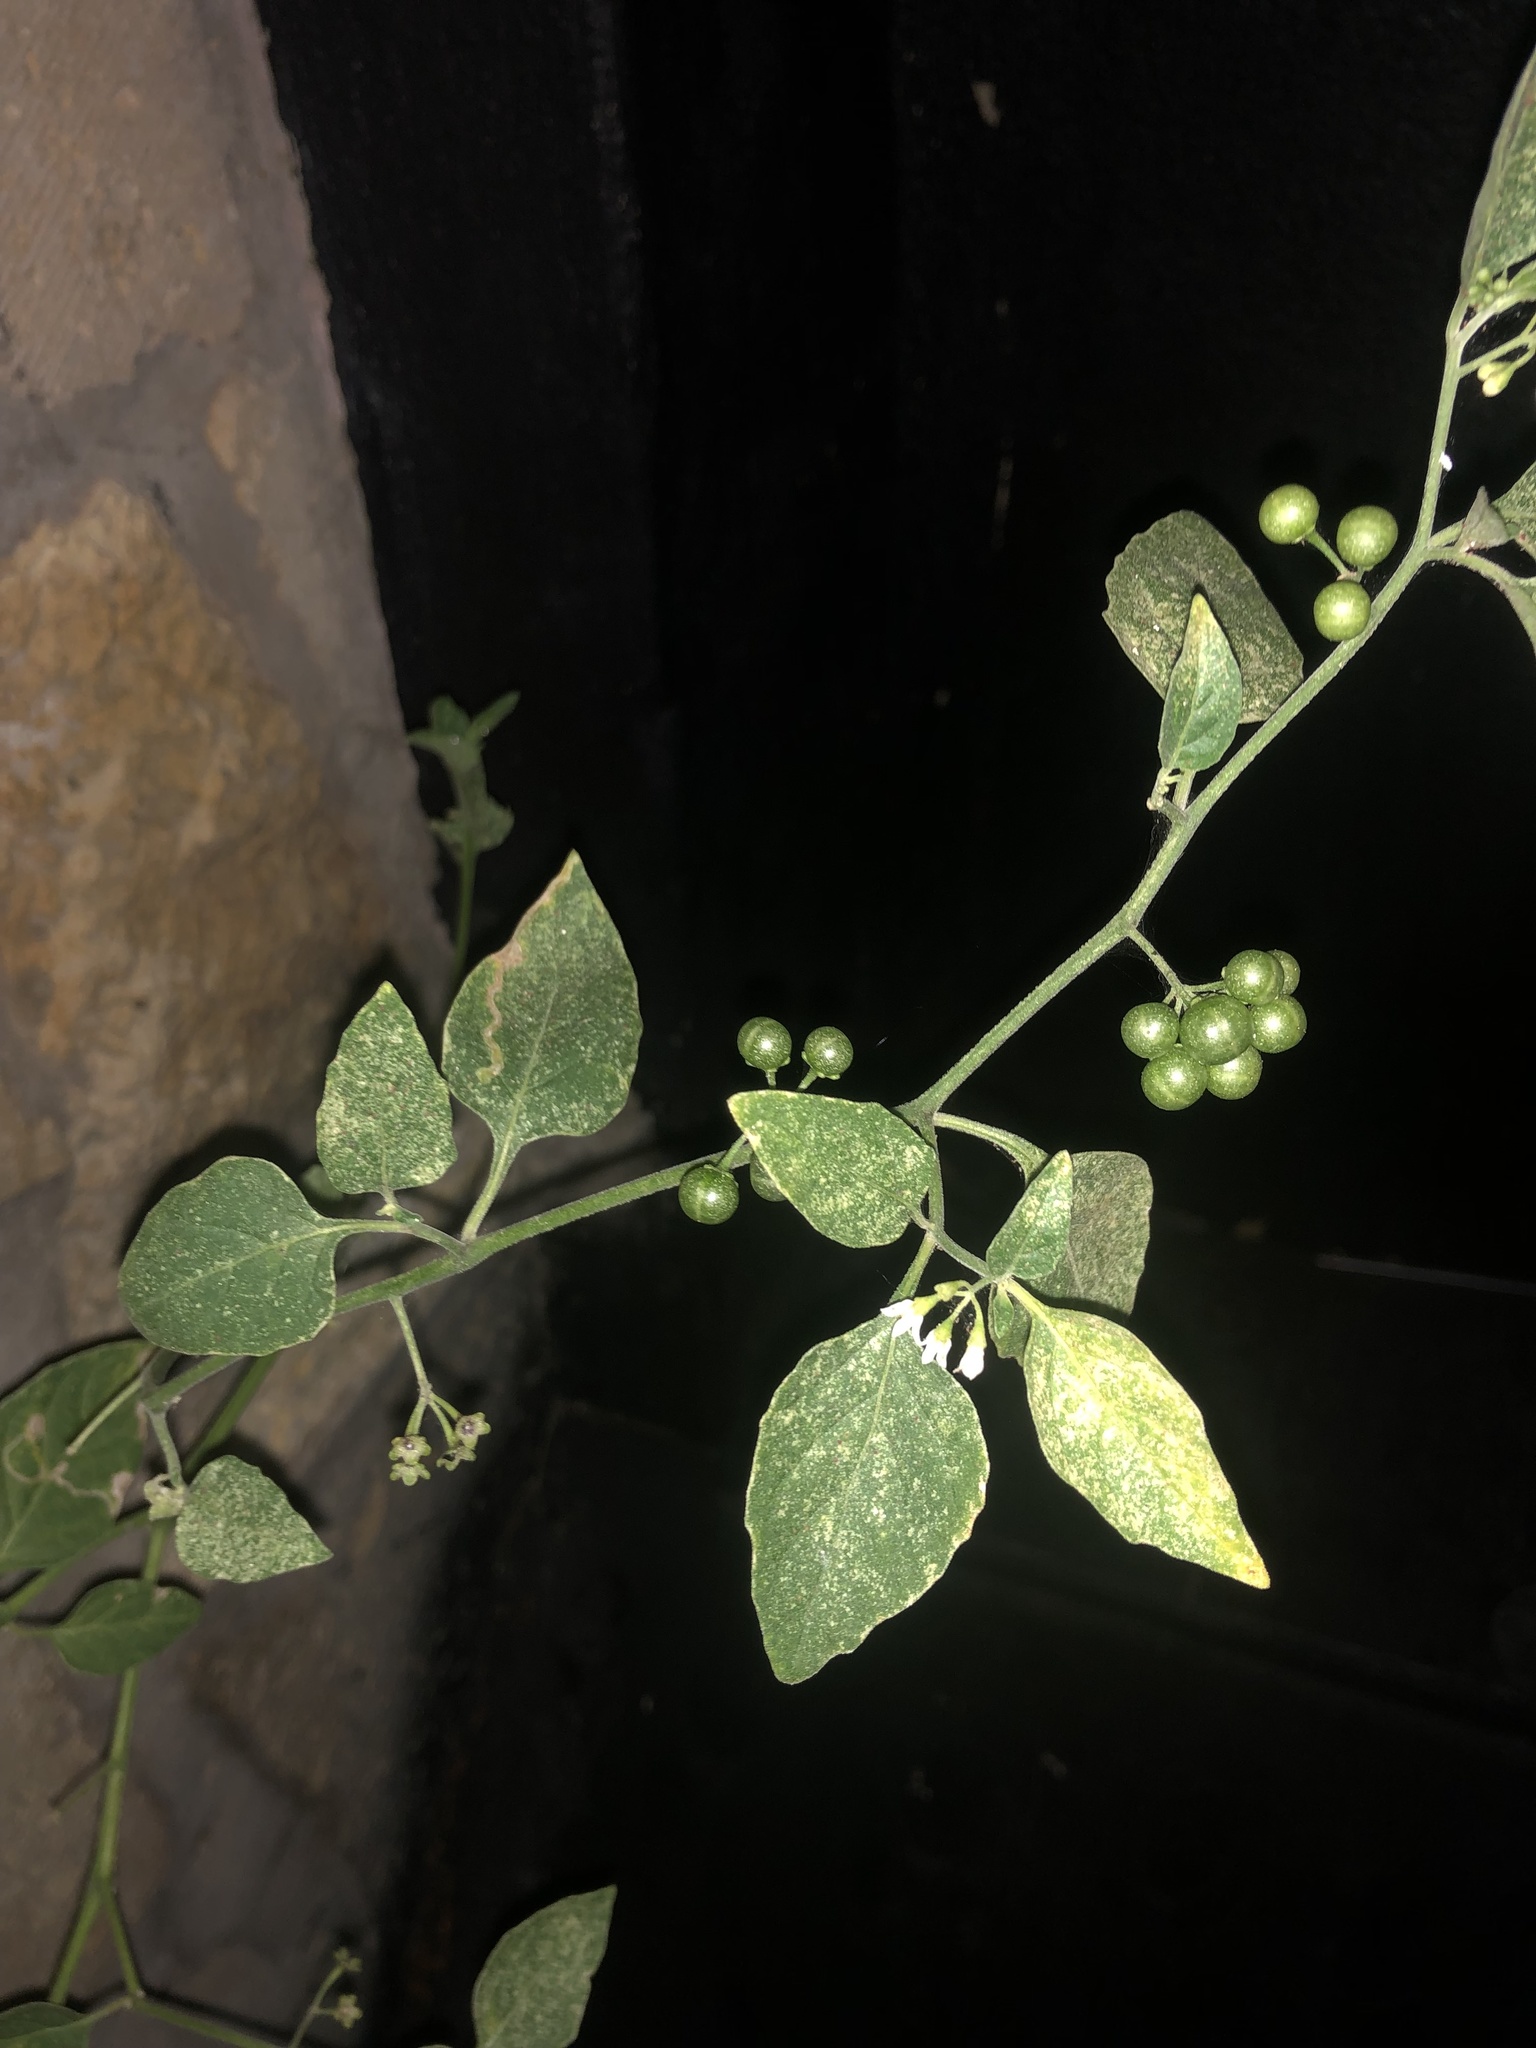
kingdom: Plantae
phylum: Tracheophyta
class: Magnoliopsida
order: Solanales
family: Solanaceae
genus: Solanum
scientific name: Solanum americanum
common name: American black nightshade
